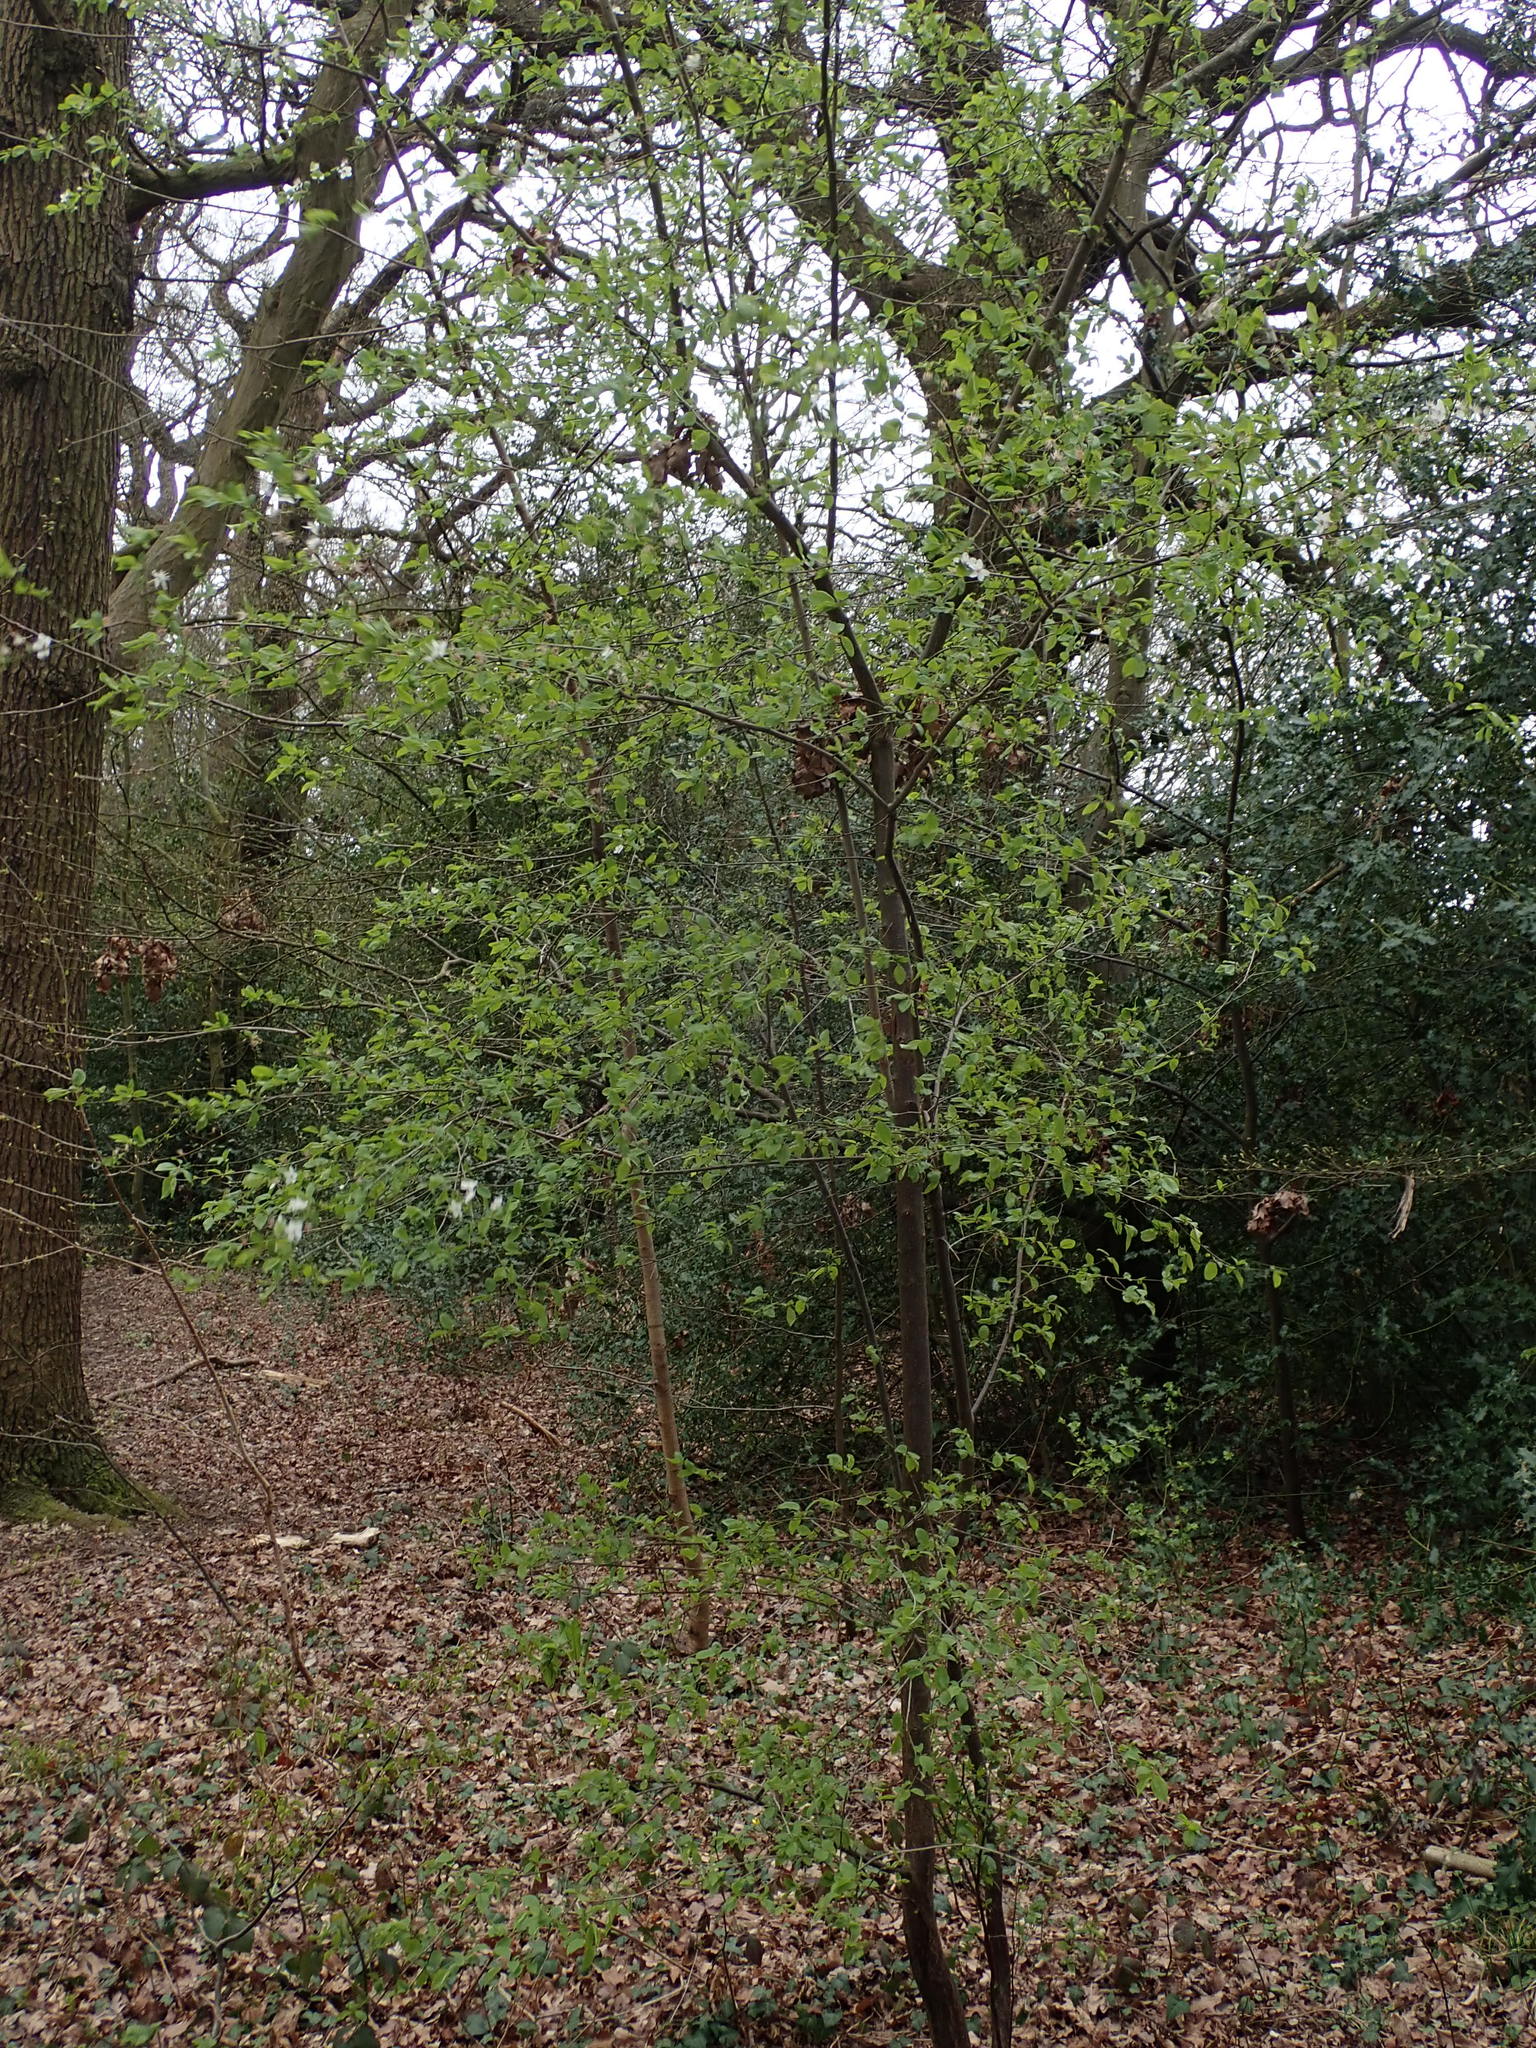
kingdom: Plantae
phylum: Tracheophyta
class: Magnoliopsida
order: Rosales
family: Rosaceae
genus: Prunus
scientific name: Prunus cerasifera
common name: Cherry plum
